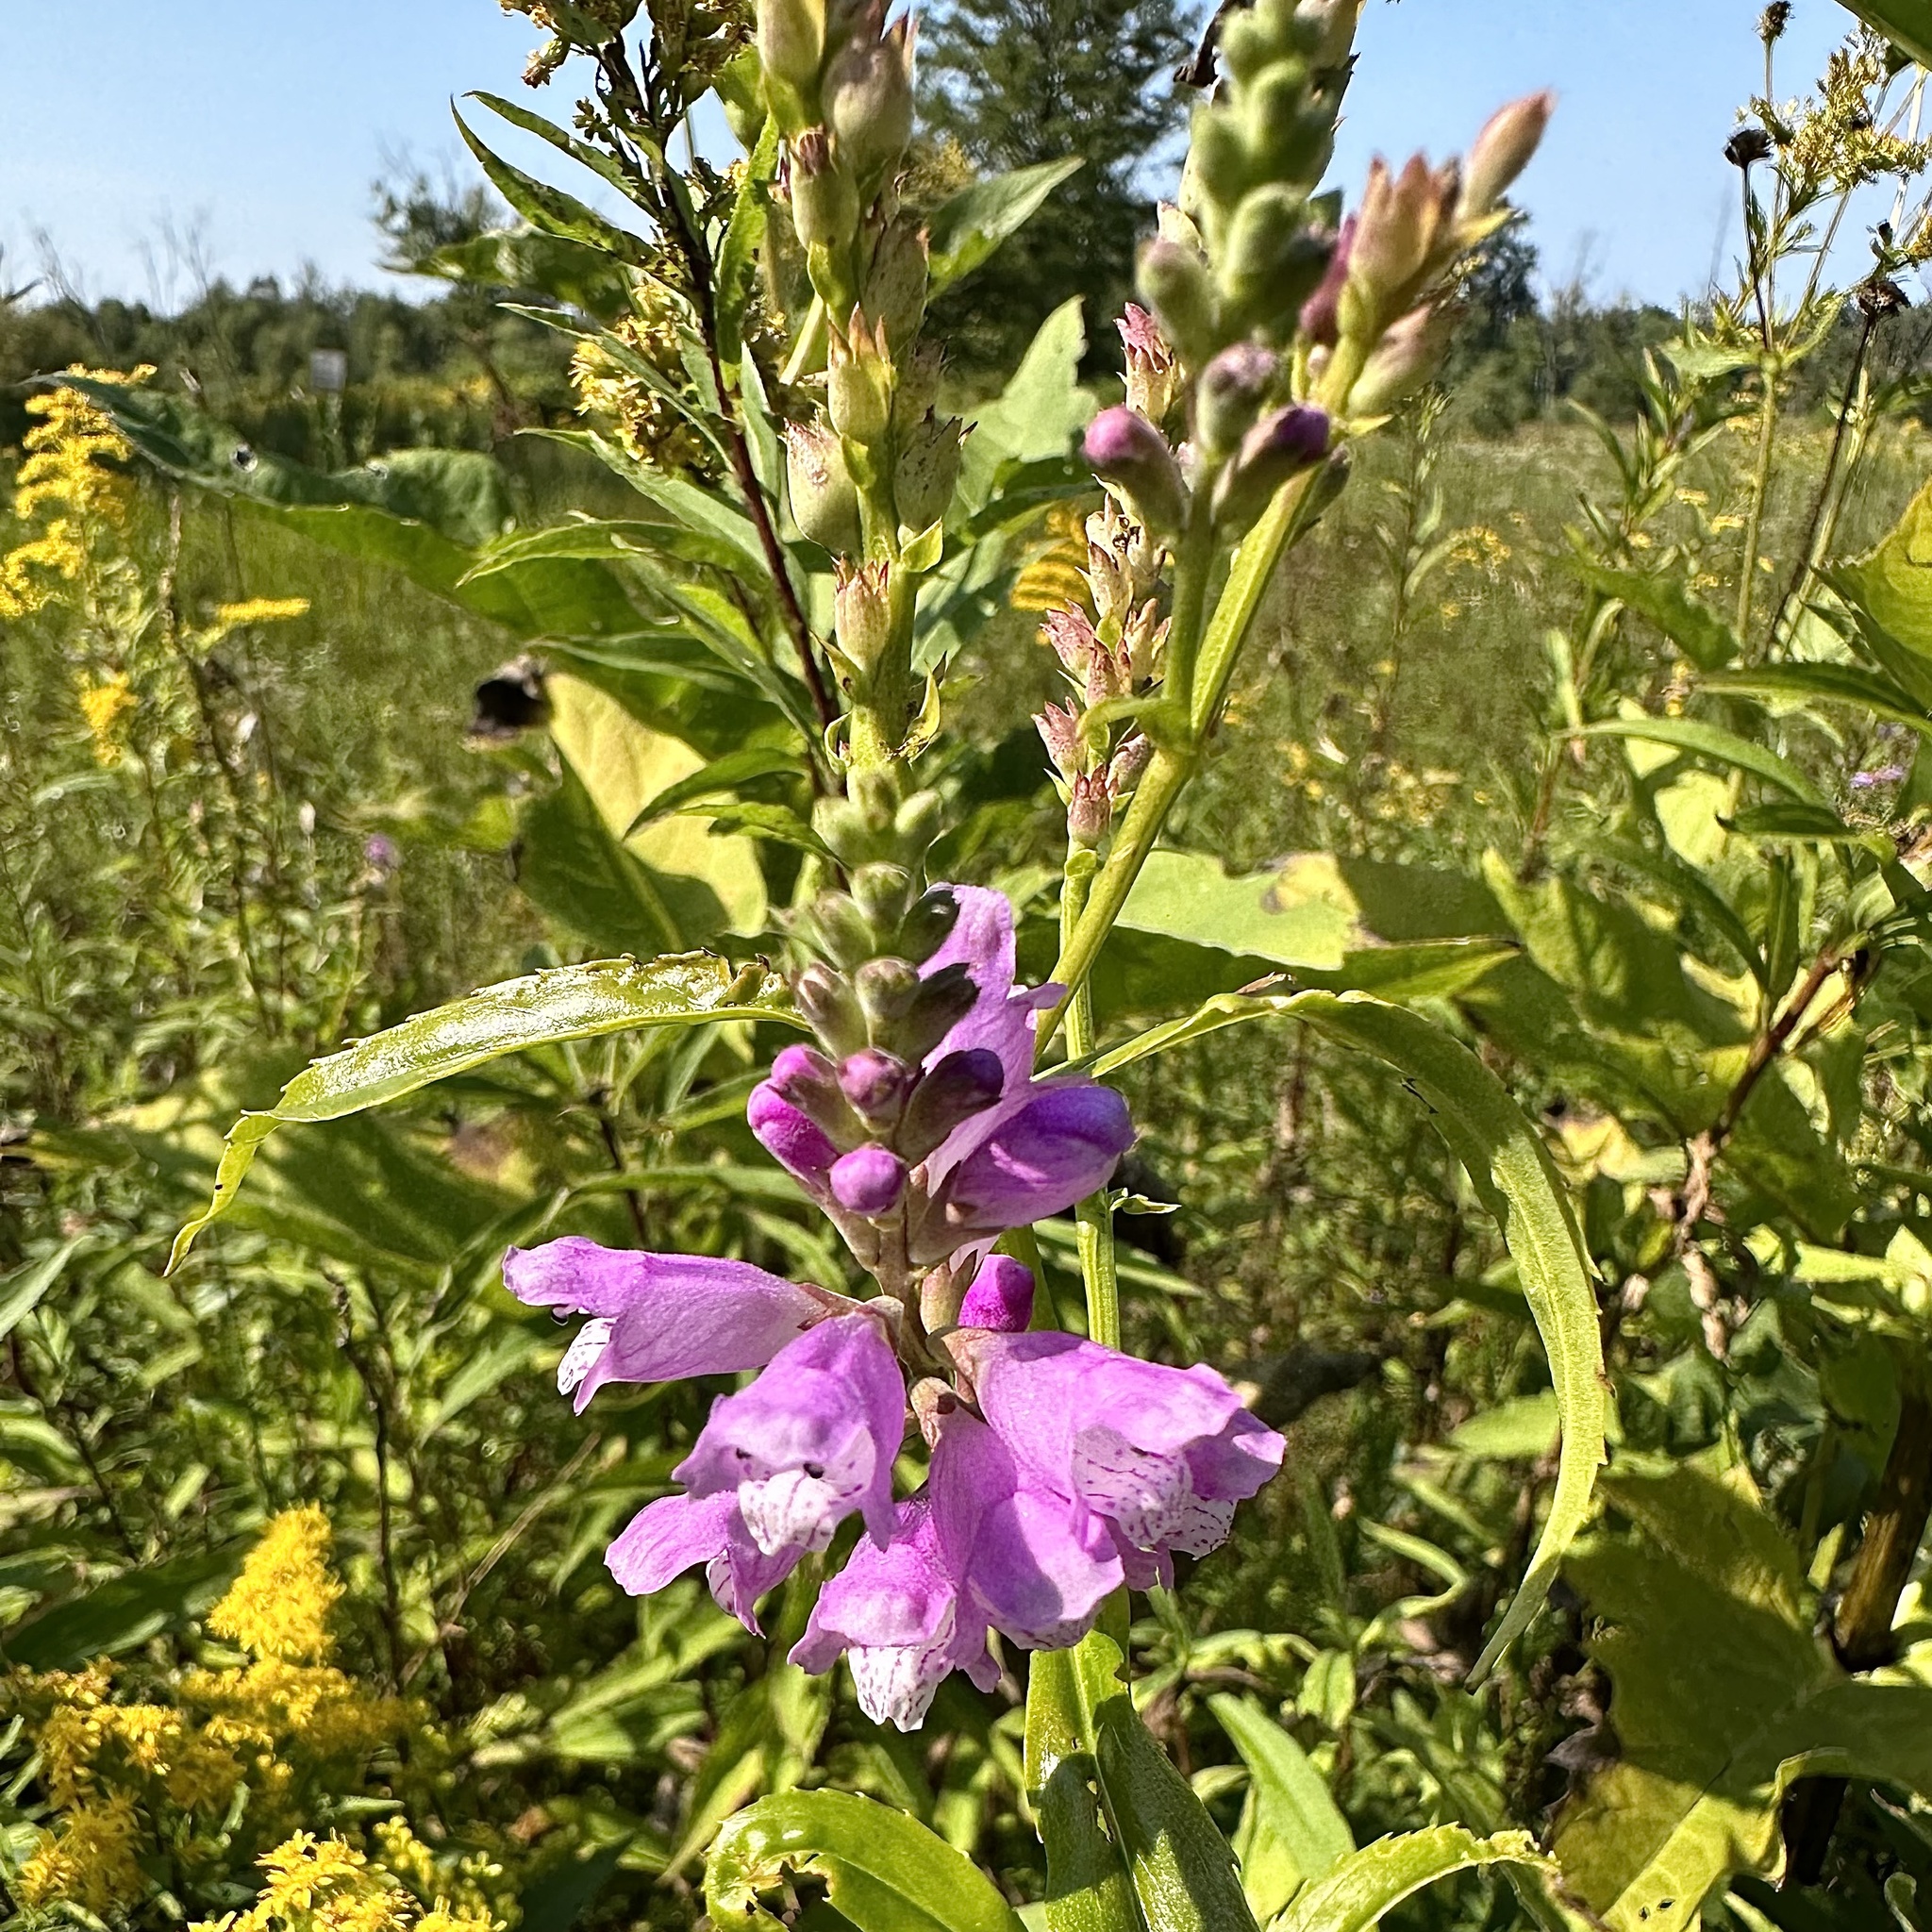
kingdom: Plantae
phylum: Tracheophyta
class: Magnoliopsida
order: Lamiales
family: Lamiaceae
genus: Physostegia
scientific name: Physostegia virginiana
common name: Obedient-plant
